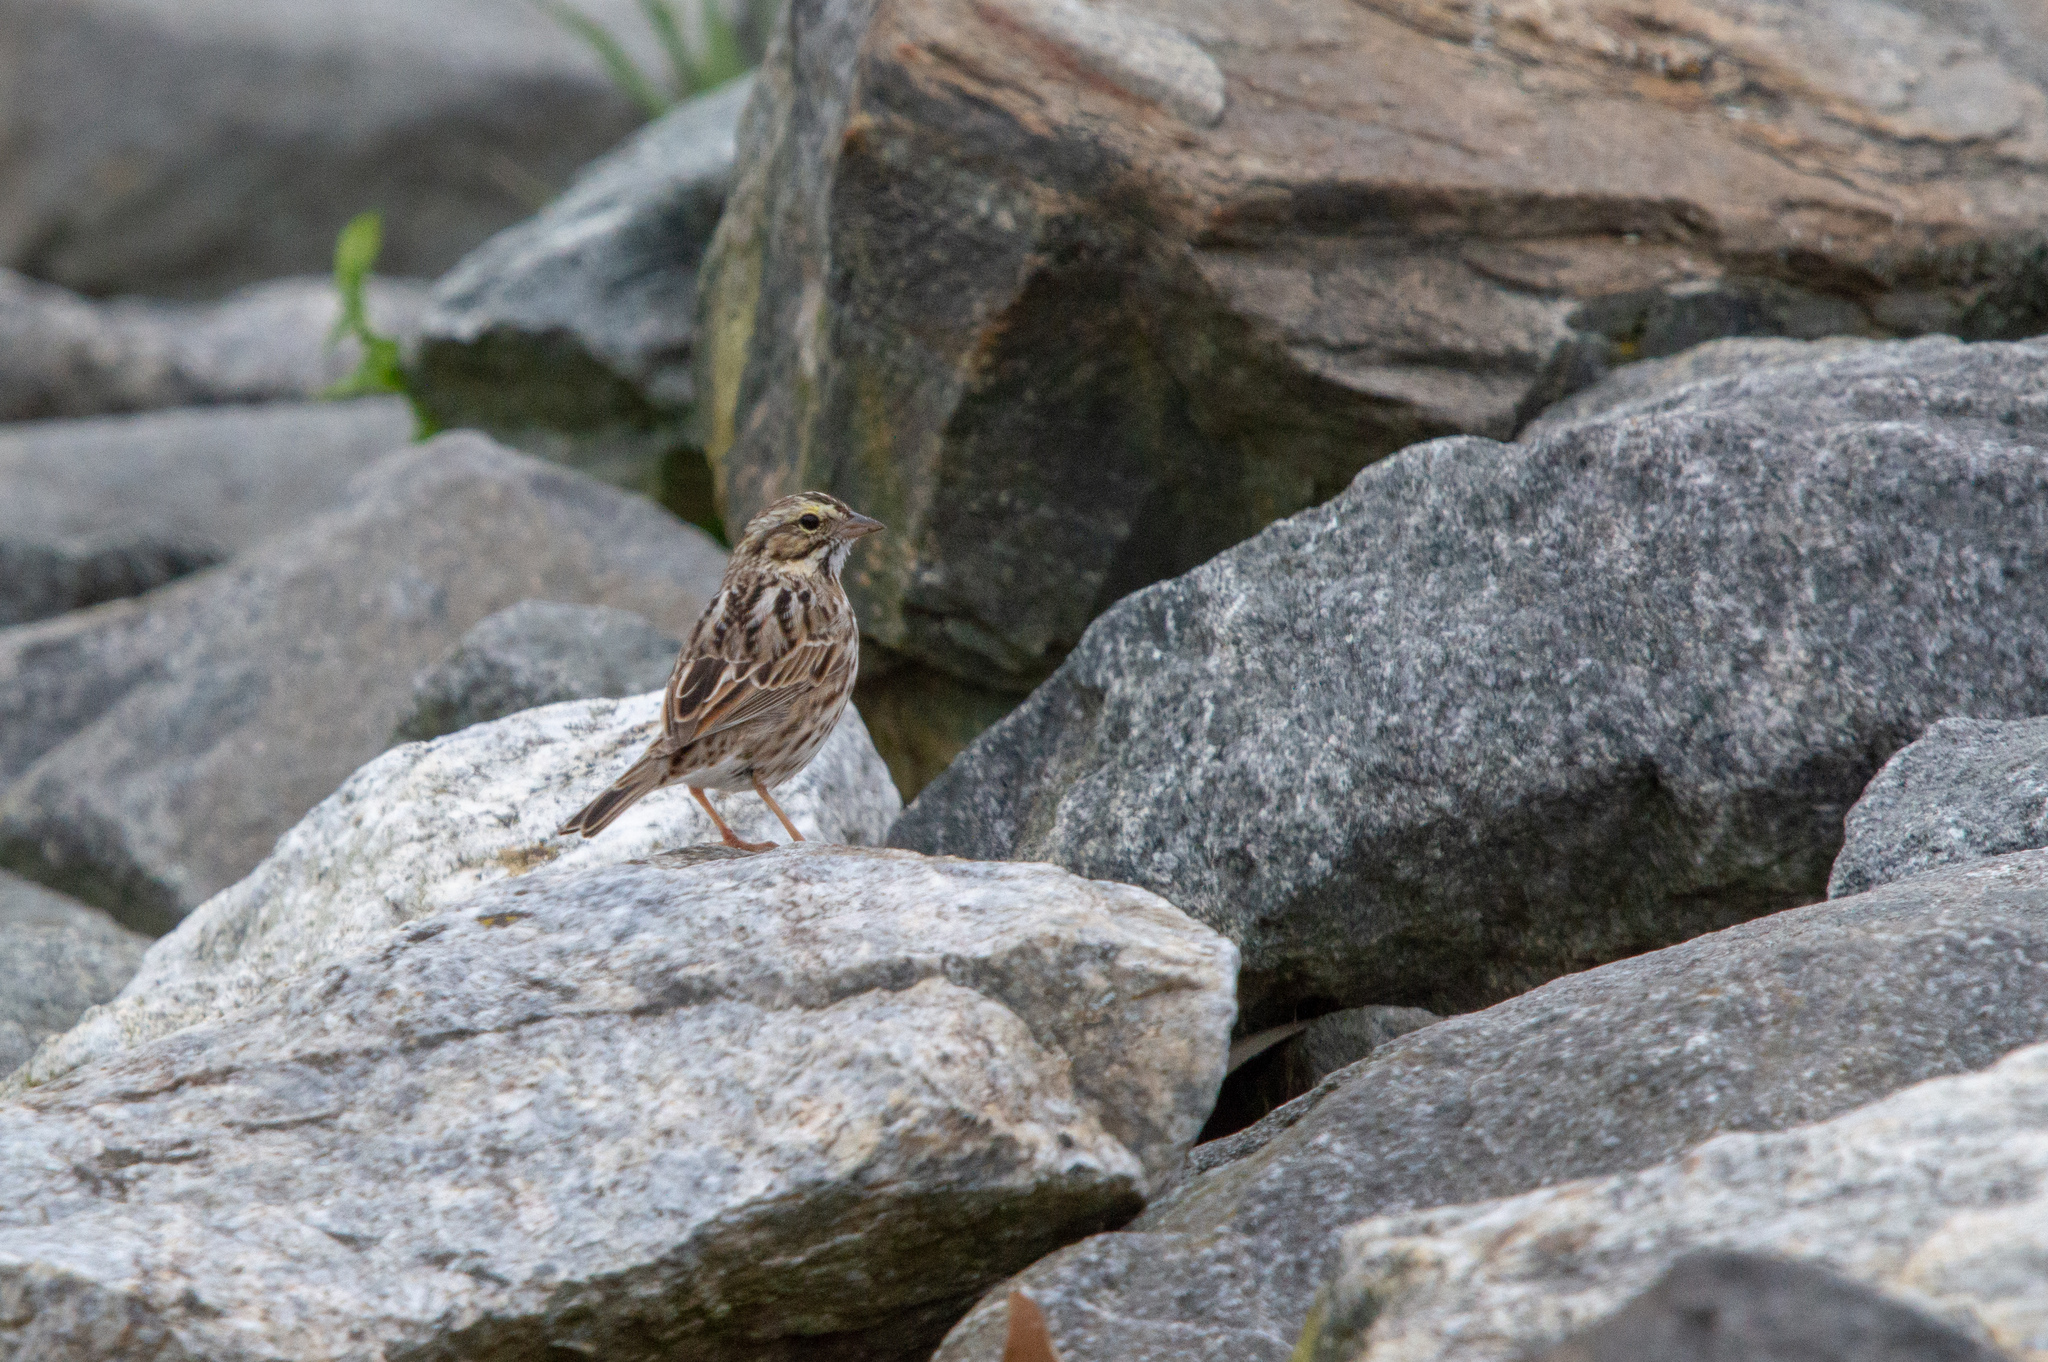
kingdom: Animalia
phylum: Chordata
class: Aves
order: Passeriformes
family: Passerellidae
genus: Passerculus
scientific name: Passerculus sandwichensis
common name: Savannah sparrow
